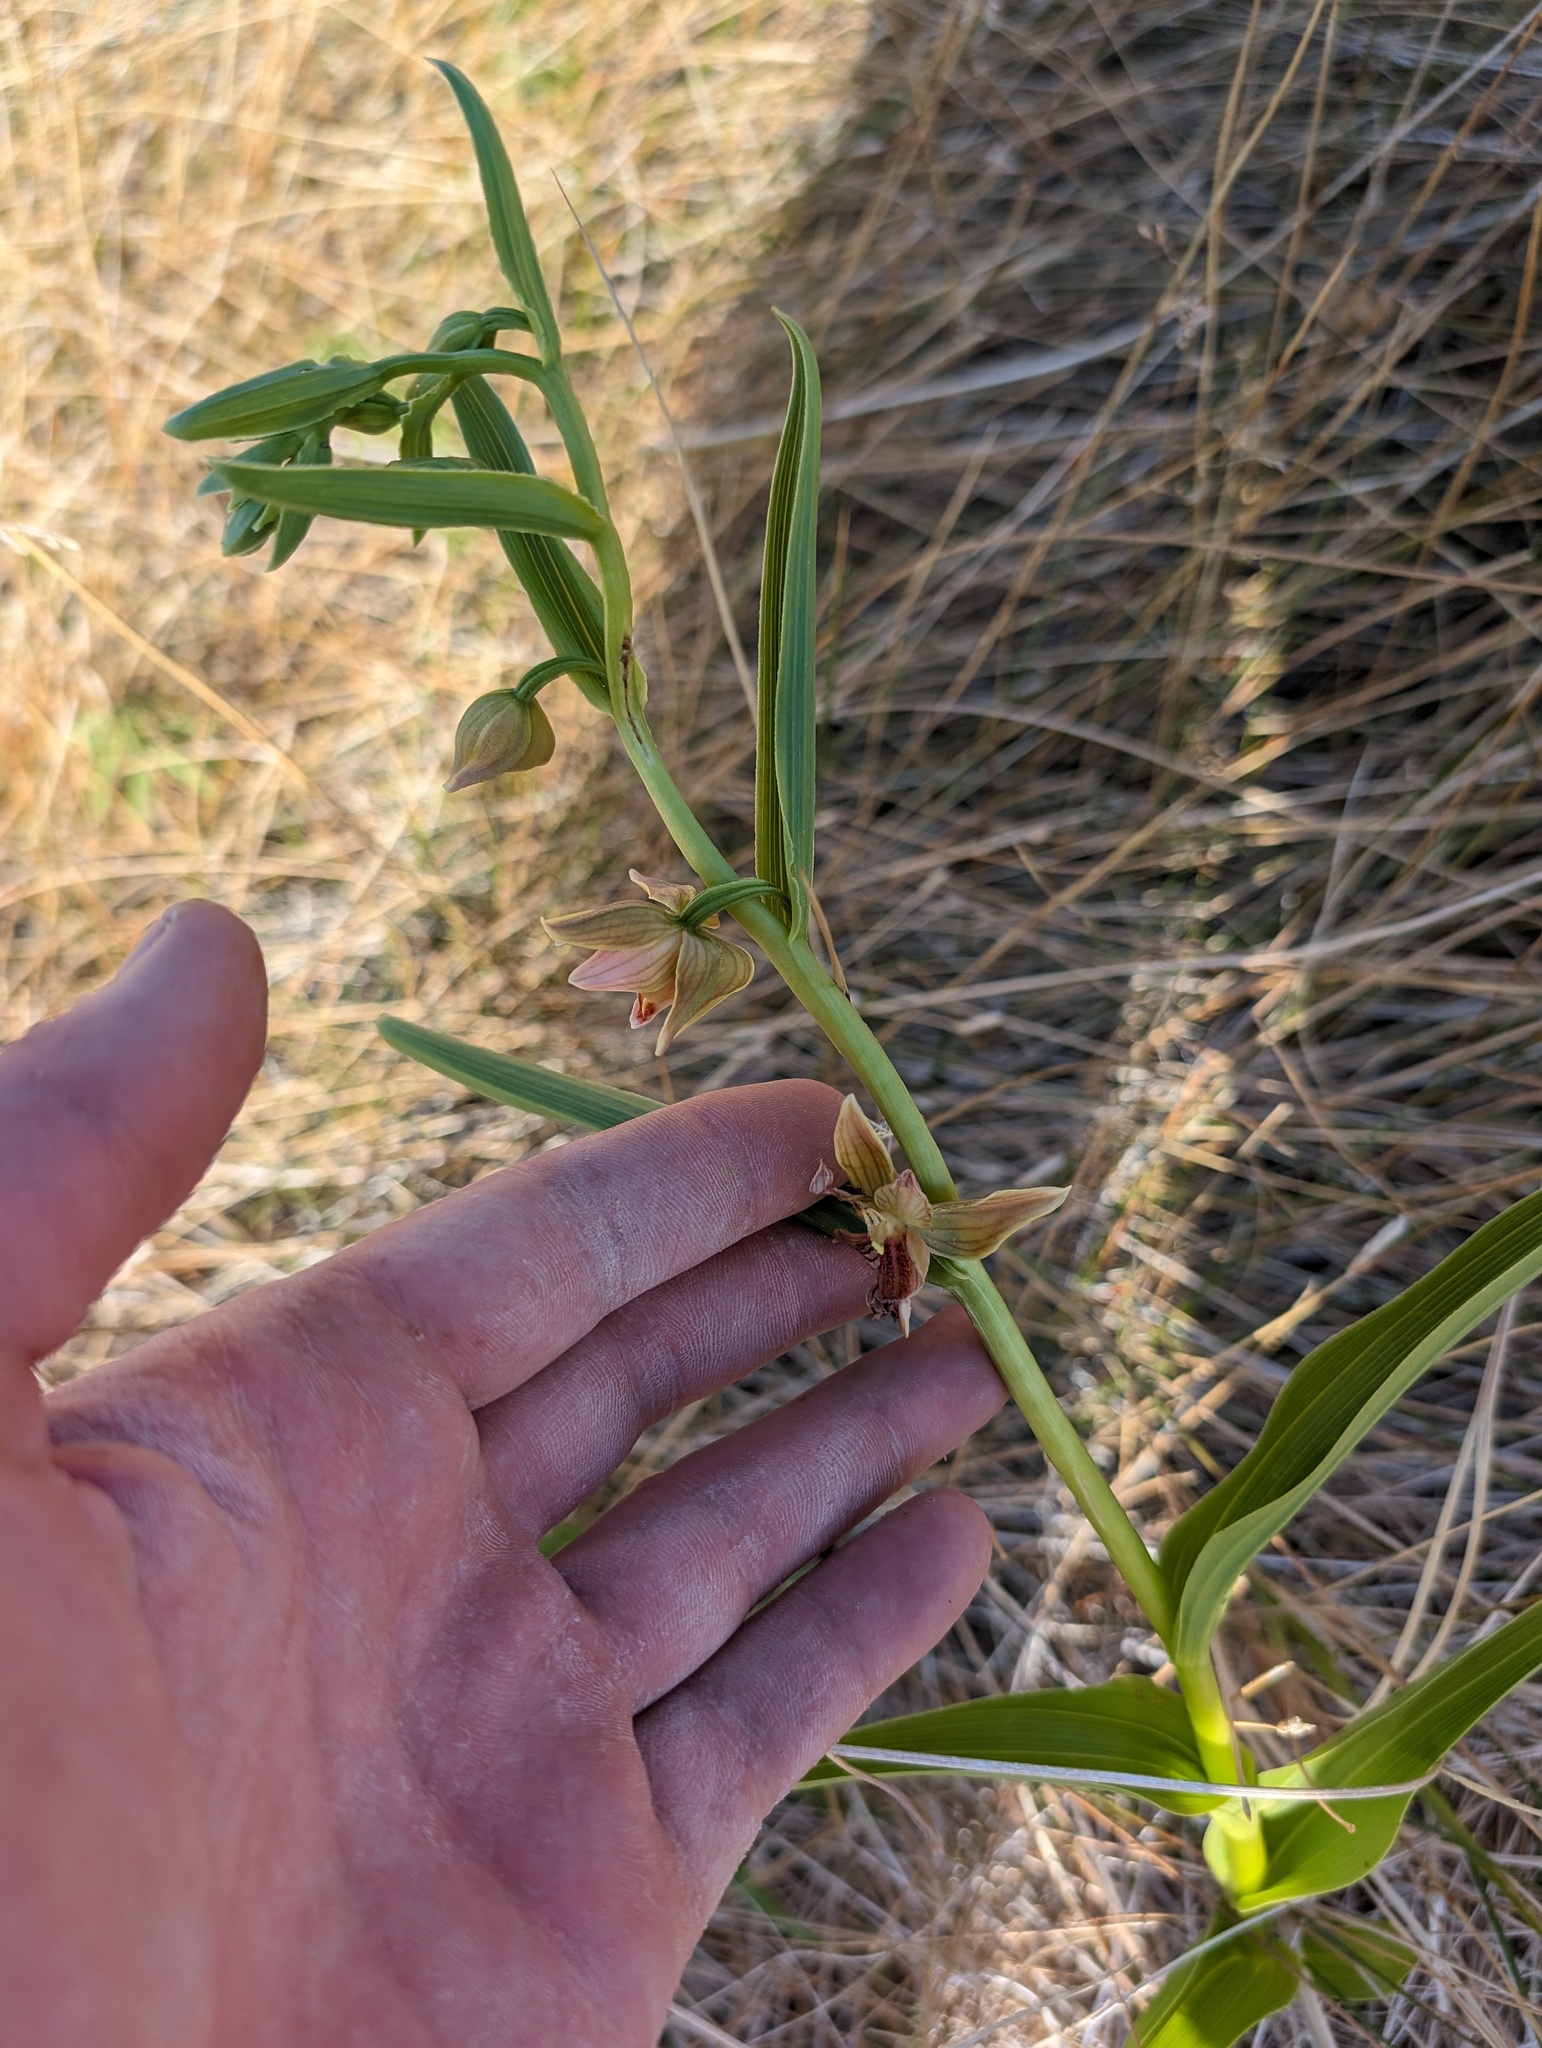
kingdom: Plantae
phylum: Tracheophyta
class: Liliopsida
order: Asparagales
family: Orchidaceae
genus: Epipactis
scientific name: Epipactis gigantea
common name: Chatterbox
